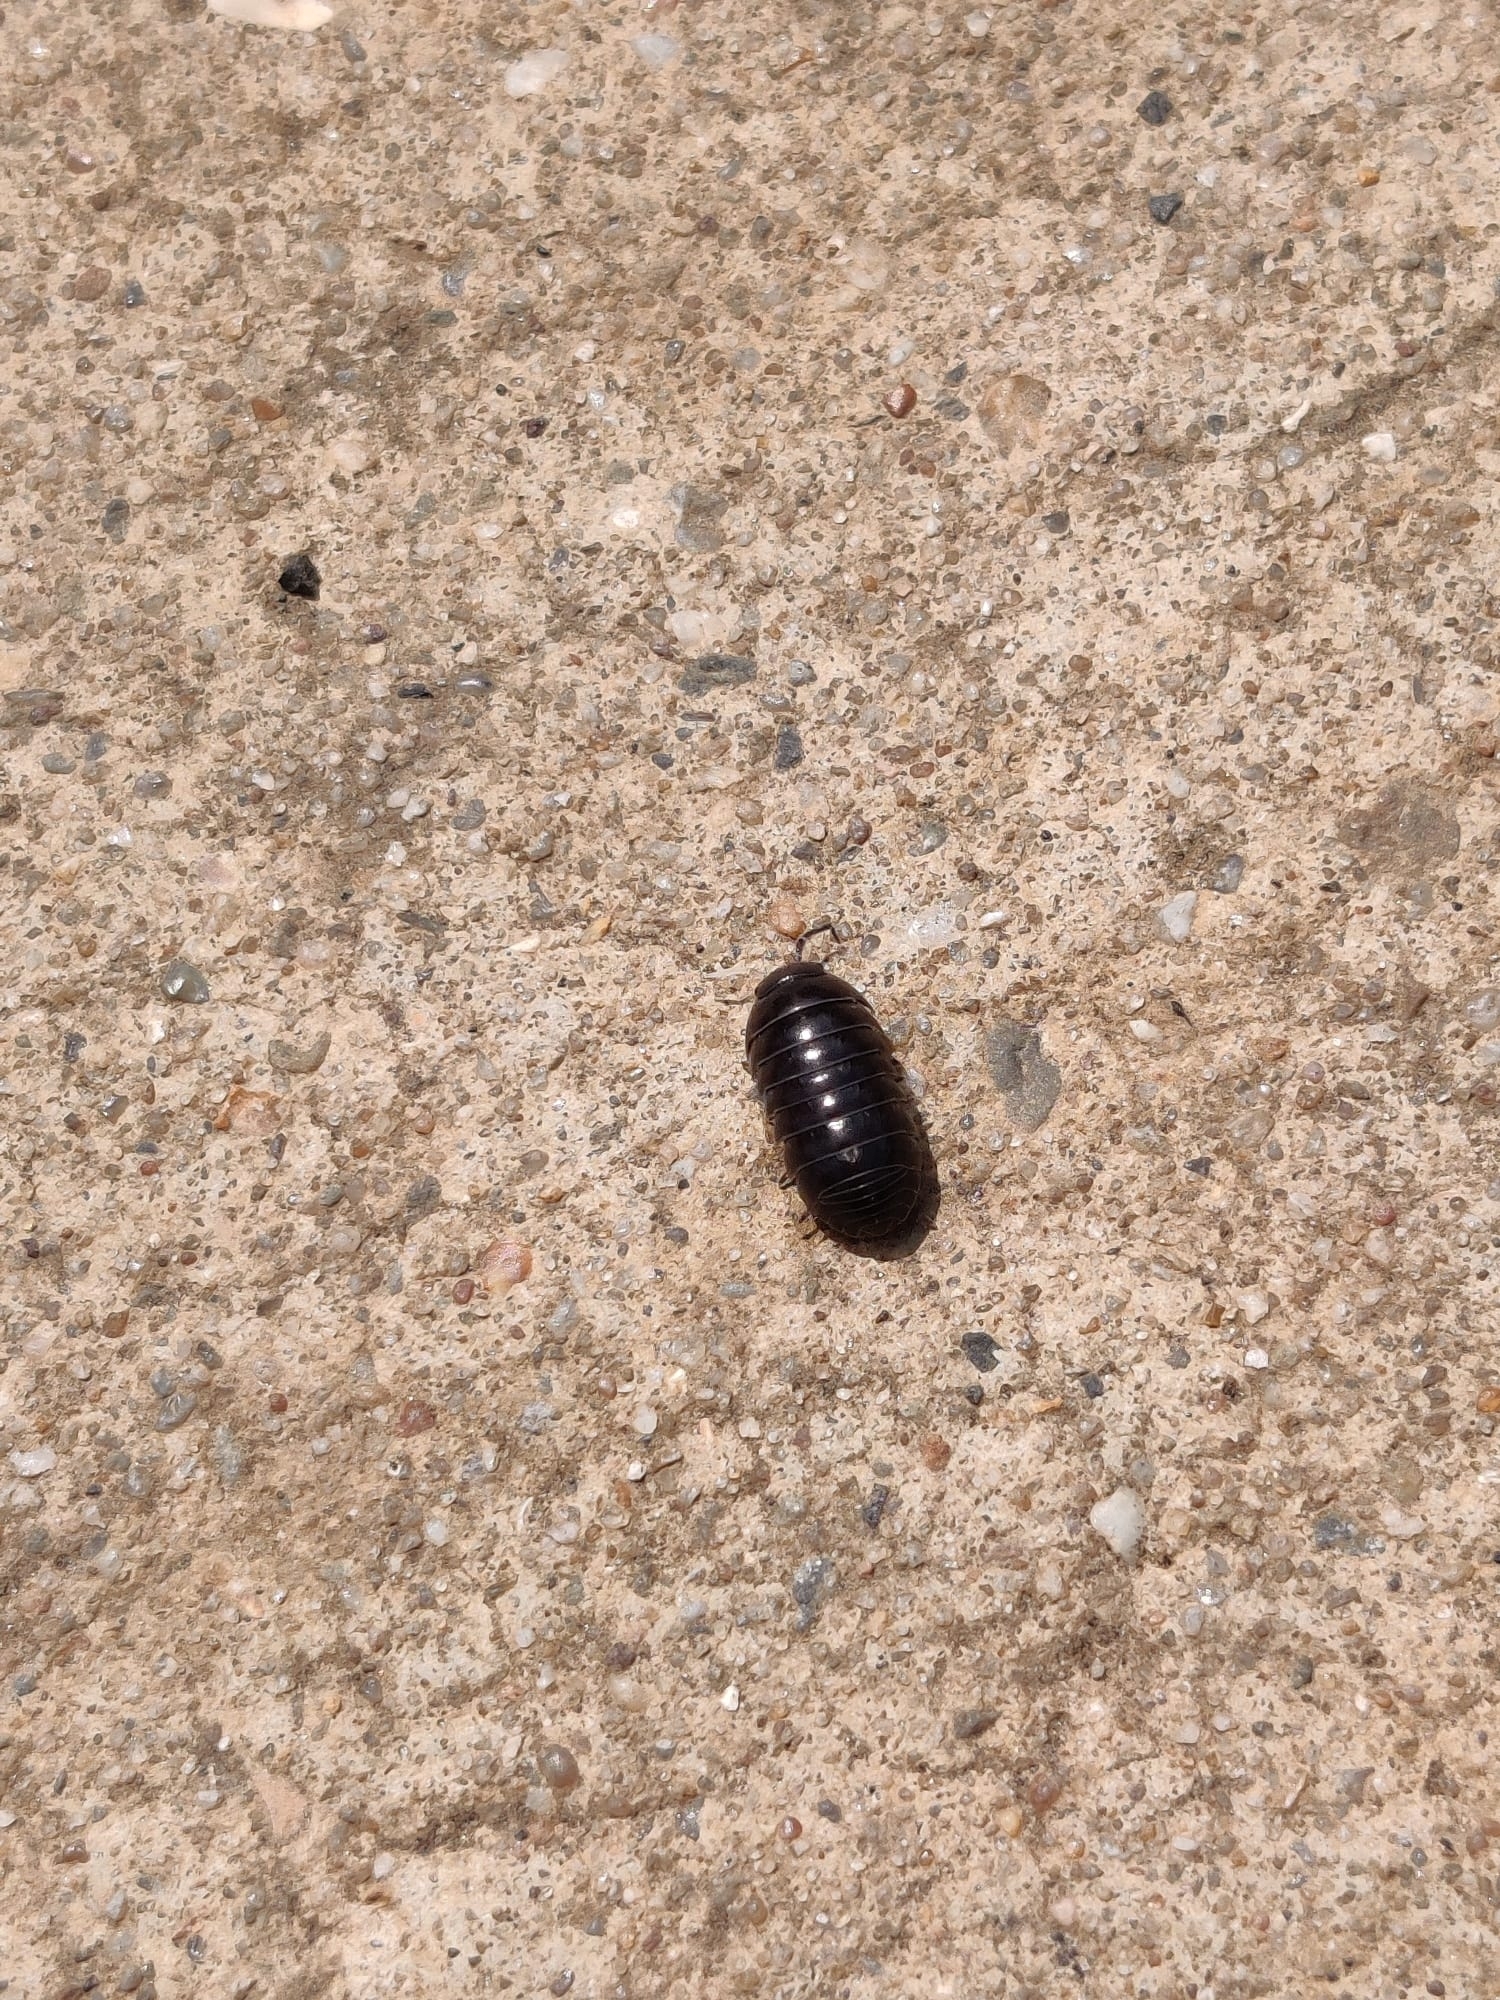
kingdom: Animalia
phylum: Arthropoda
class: Malacostraca
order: Isopoda
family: Armadillidiidae
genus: Armadillidium
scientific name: Armadillidium vulgare
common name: Common pill woodlouse
